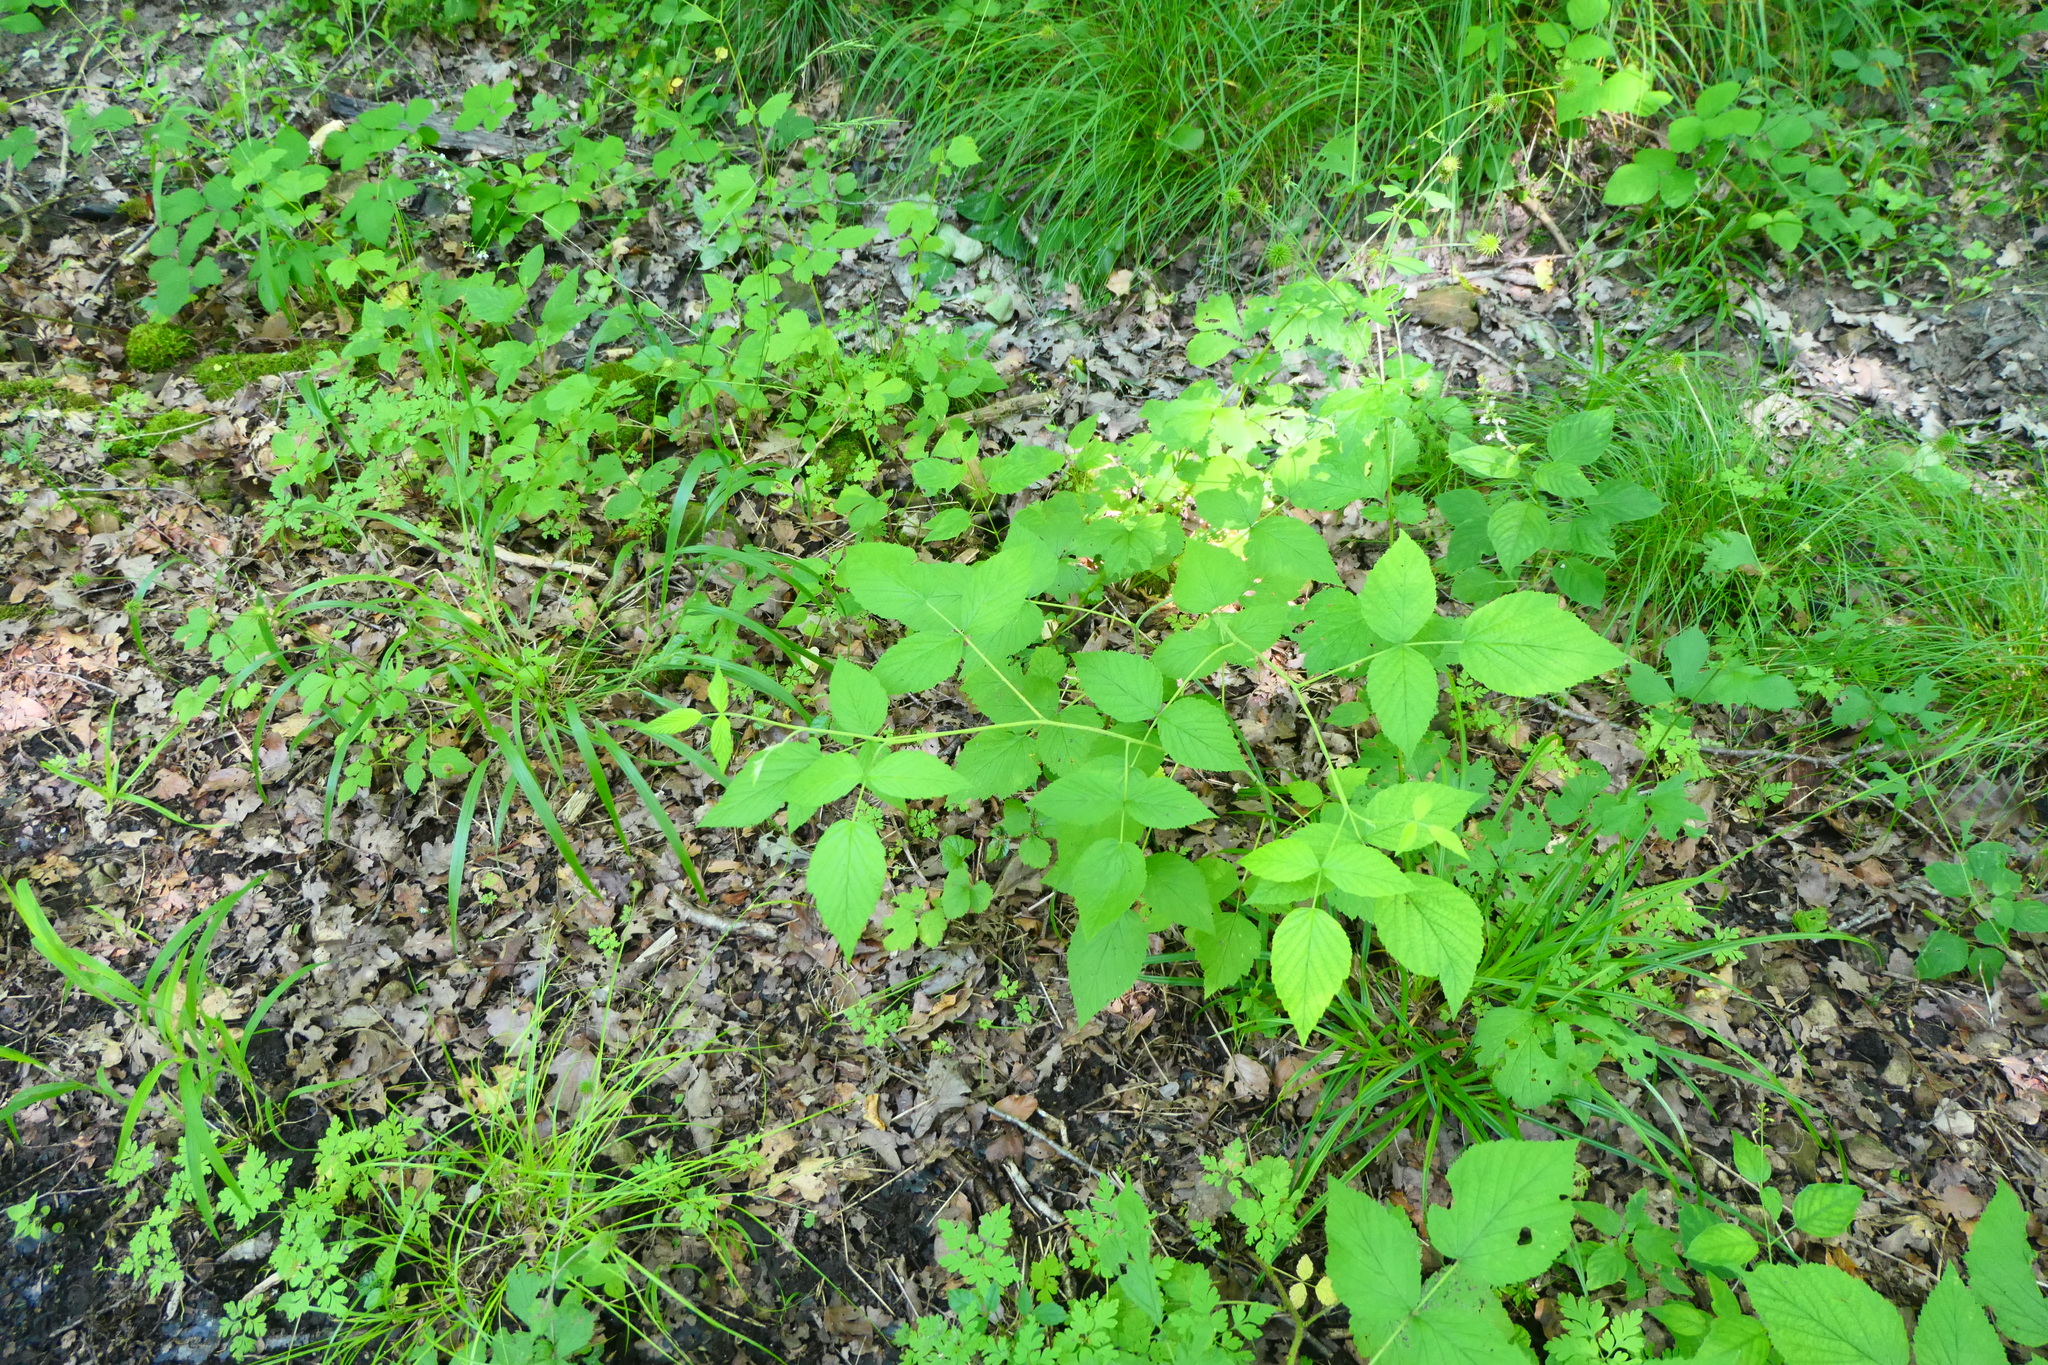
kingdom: Plantae
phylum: Tracheophyta
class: Magnoliopsida
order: Rosales
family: Rosaceae
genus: Rubus
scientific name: Rubus idaeus
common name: Raspberry
